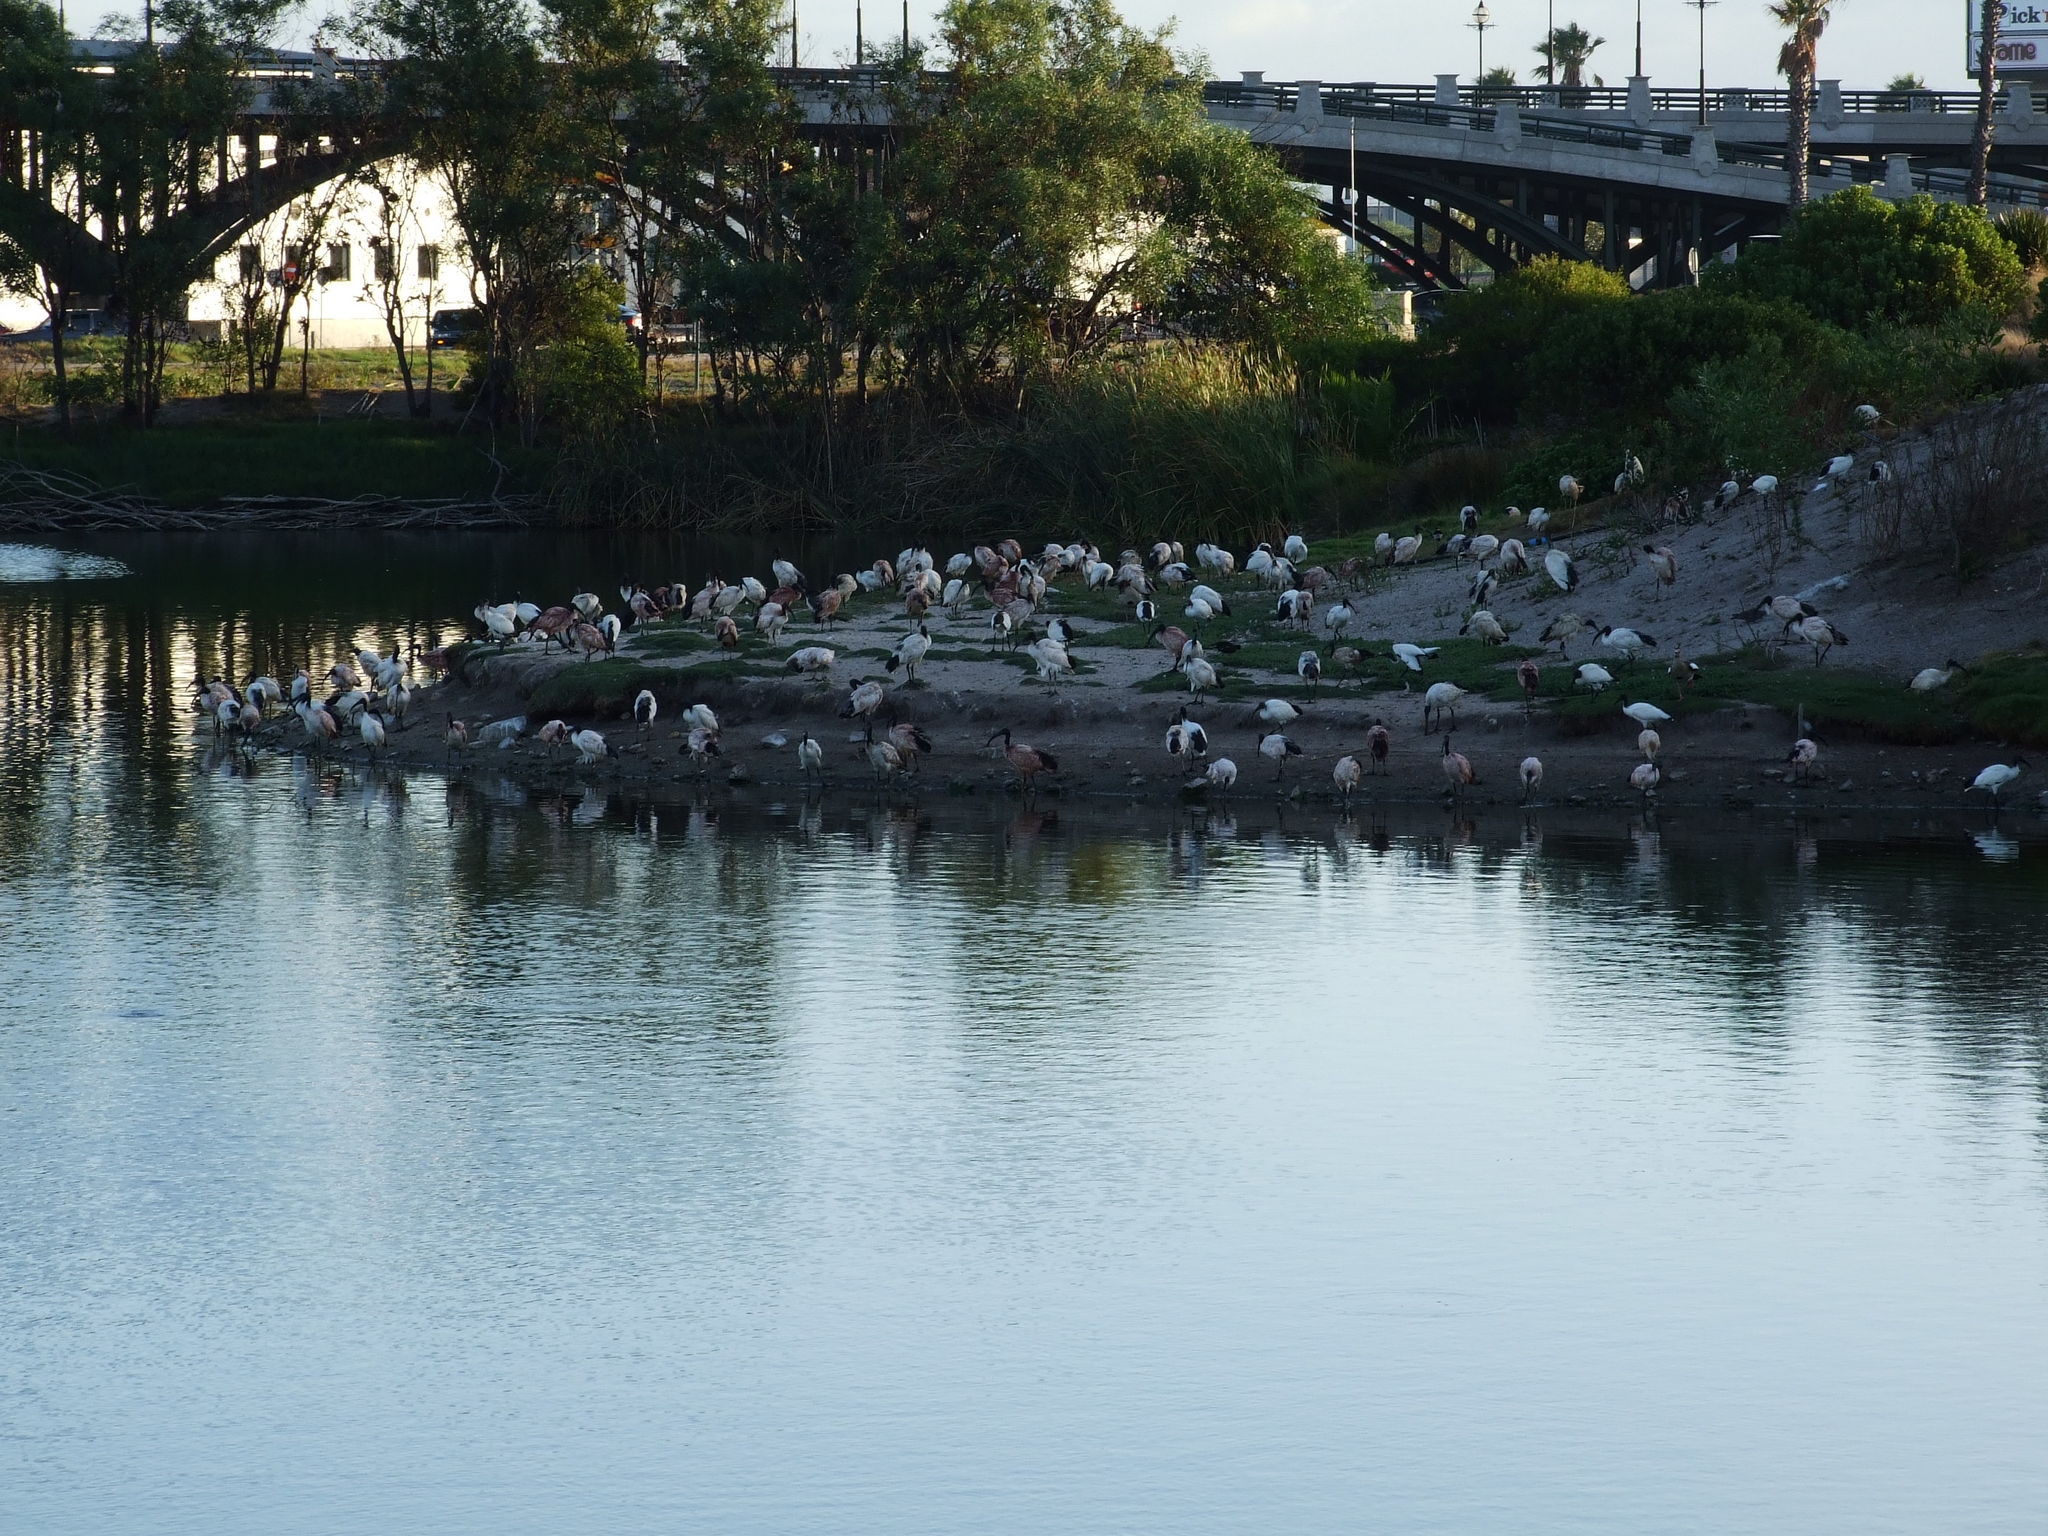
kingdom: Animalia
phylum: Chordata
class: Aves
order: Pelecaniformes
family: Threskiornithidae
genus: Threskiornis
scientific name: Threskiornis aethiopicus
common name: Sacred ibis
